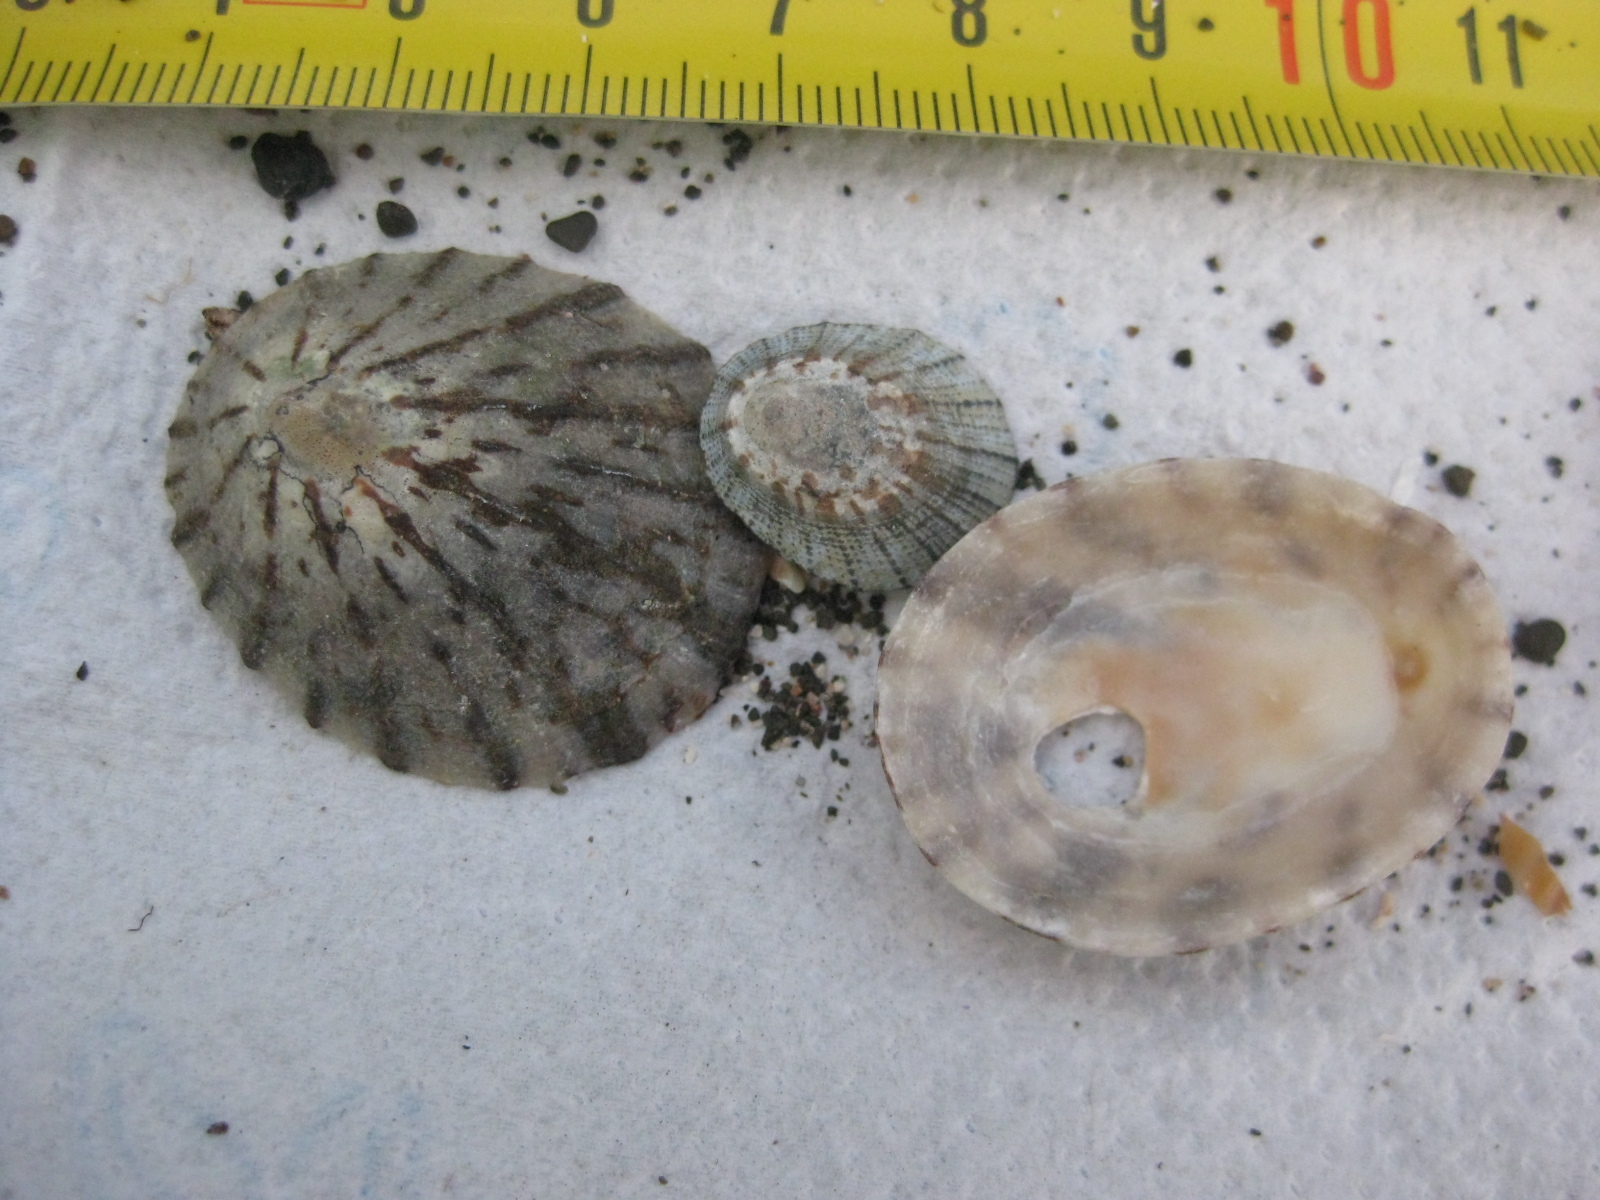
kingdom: Animalia
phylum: Mollusca
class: Gastropoda
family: Nacellidae
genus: Cellana
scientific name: Cellana radians
